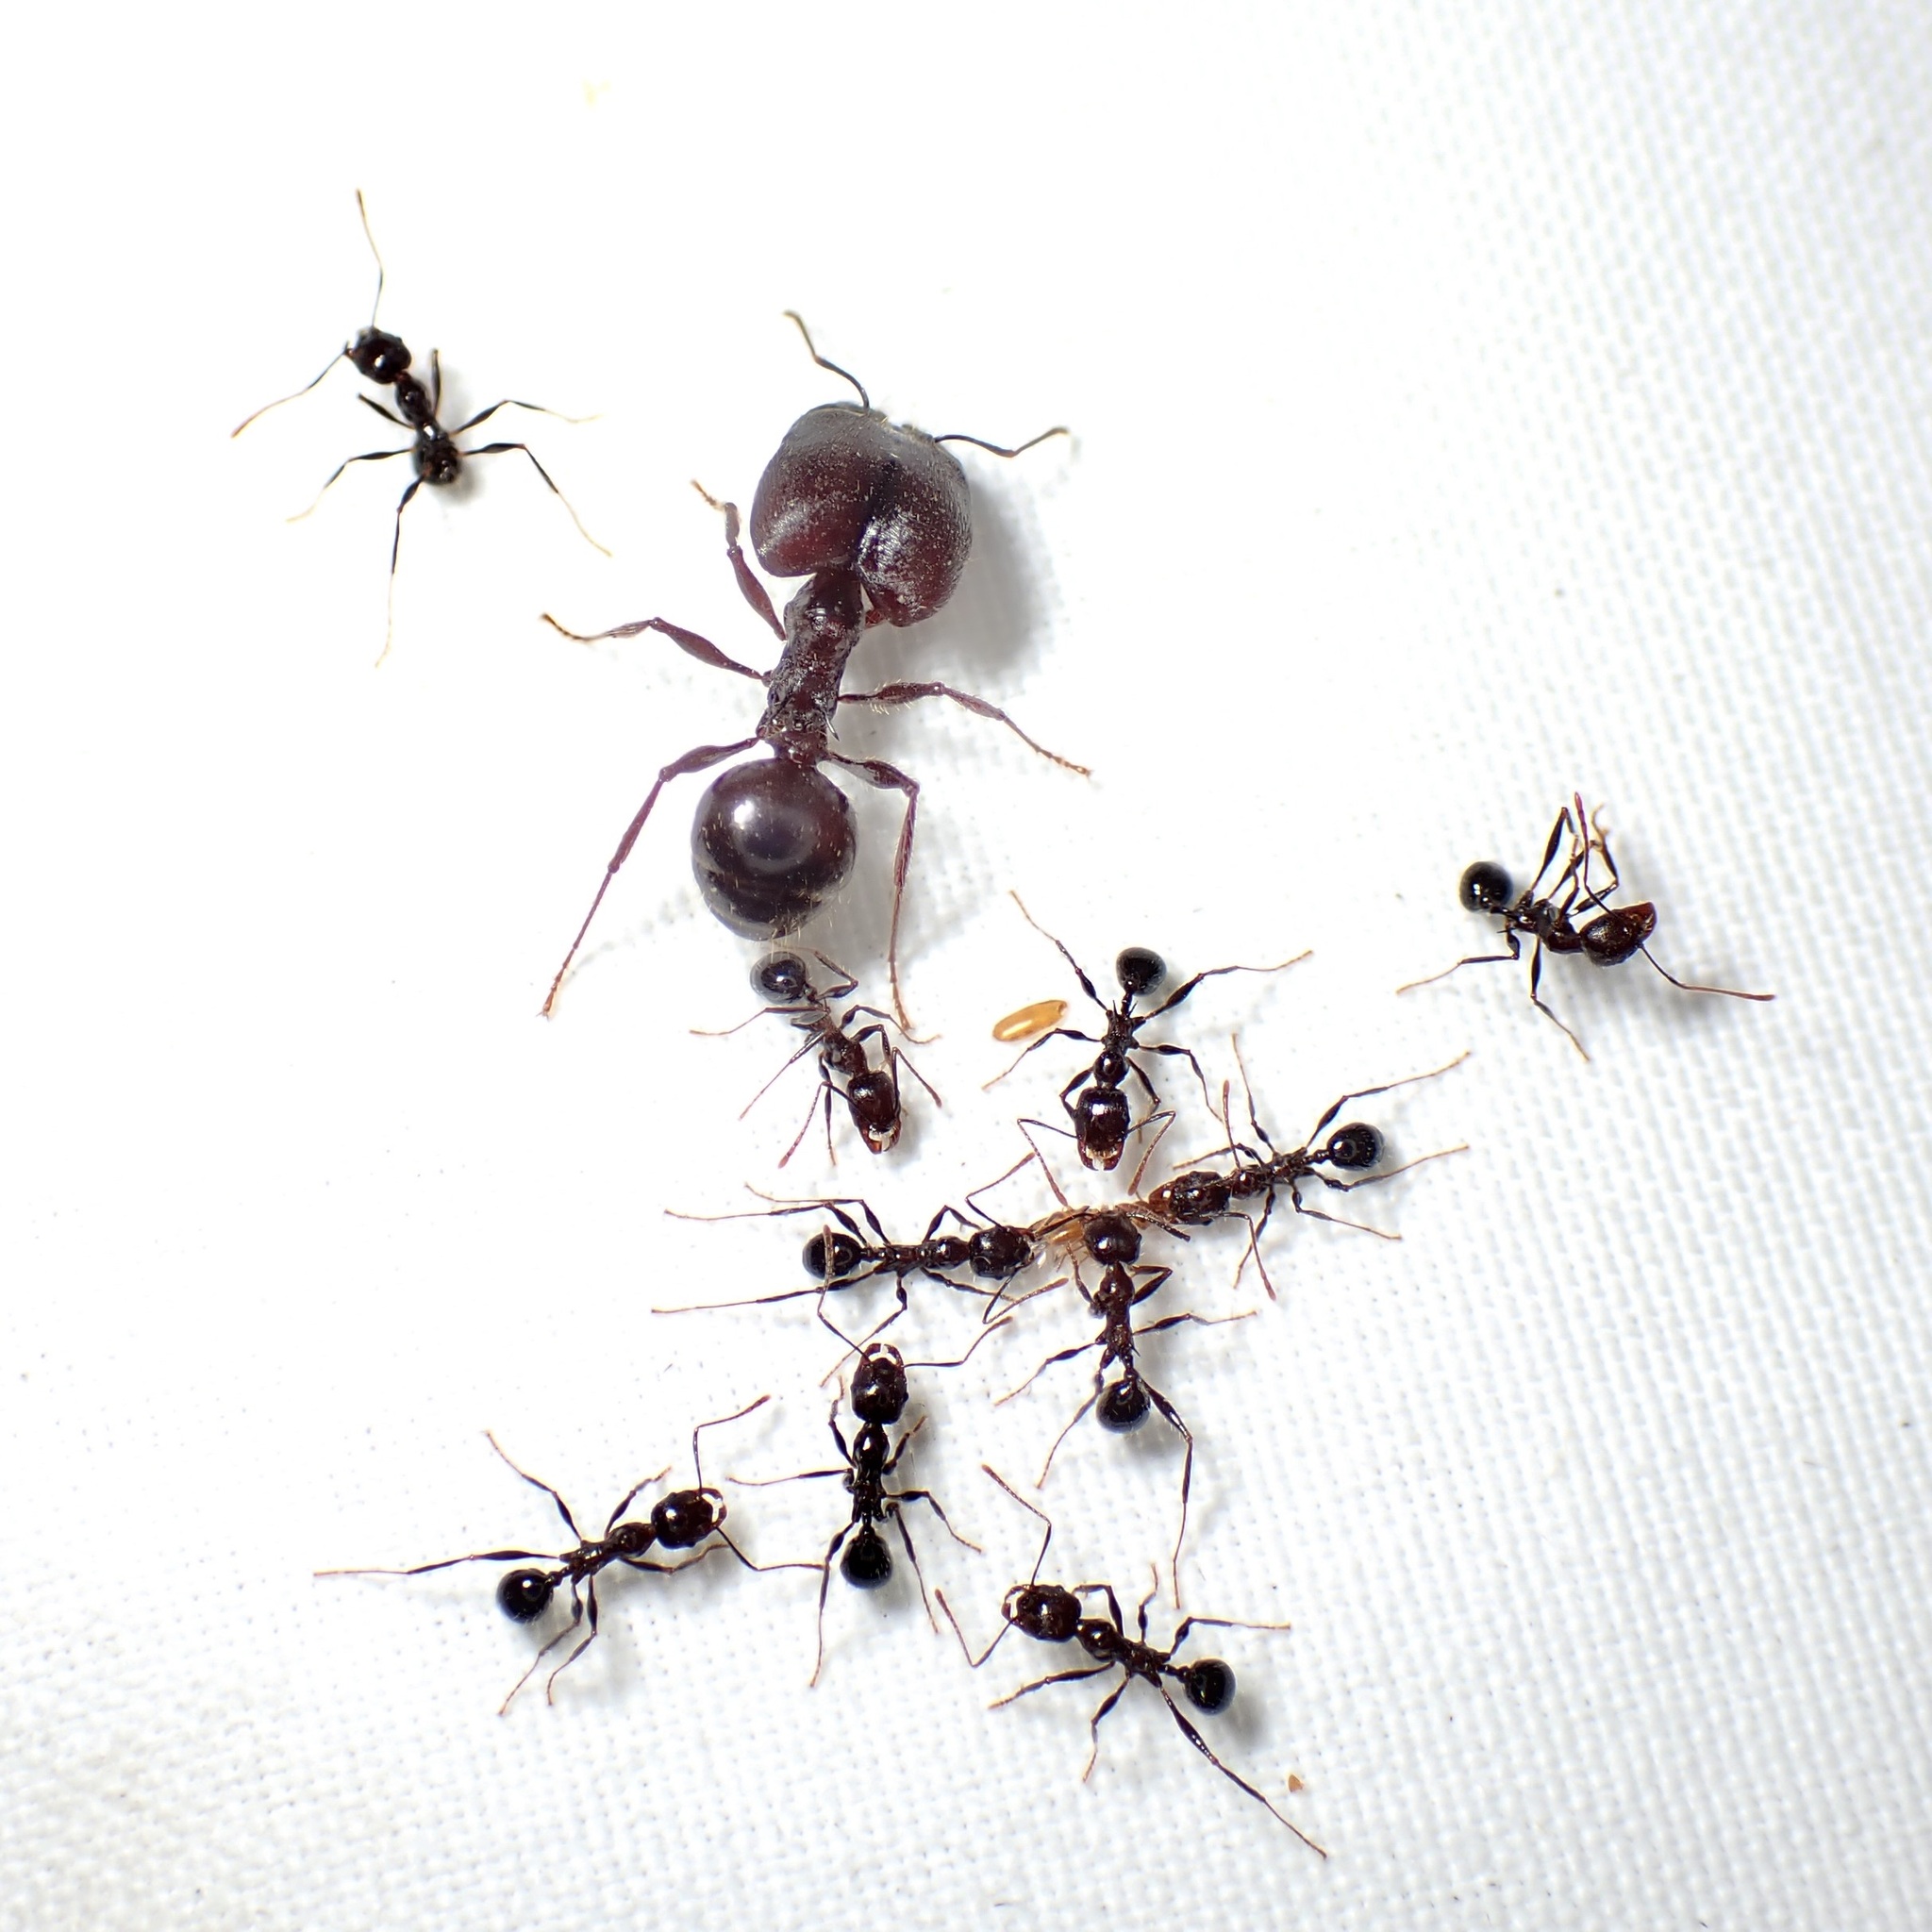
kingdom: Animalia
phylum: Arthropoda
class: Insecta
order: Hymenoptera
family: Formicidae
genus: Pheidole
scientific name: Pheidole rhea
